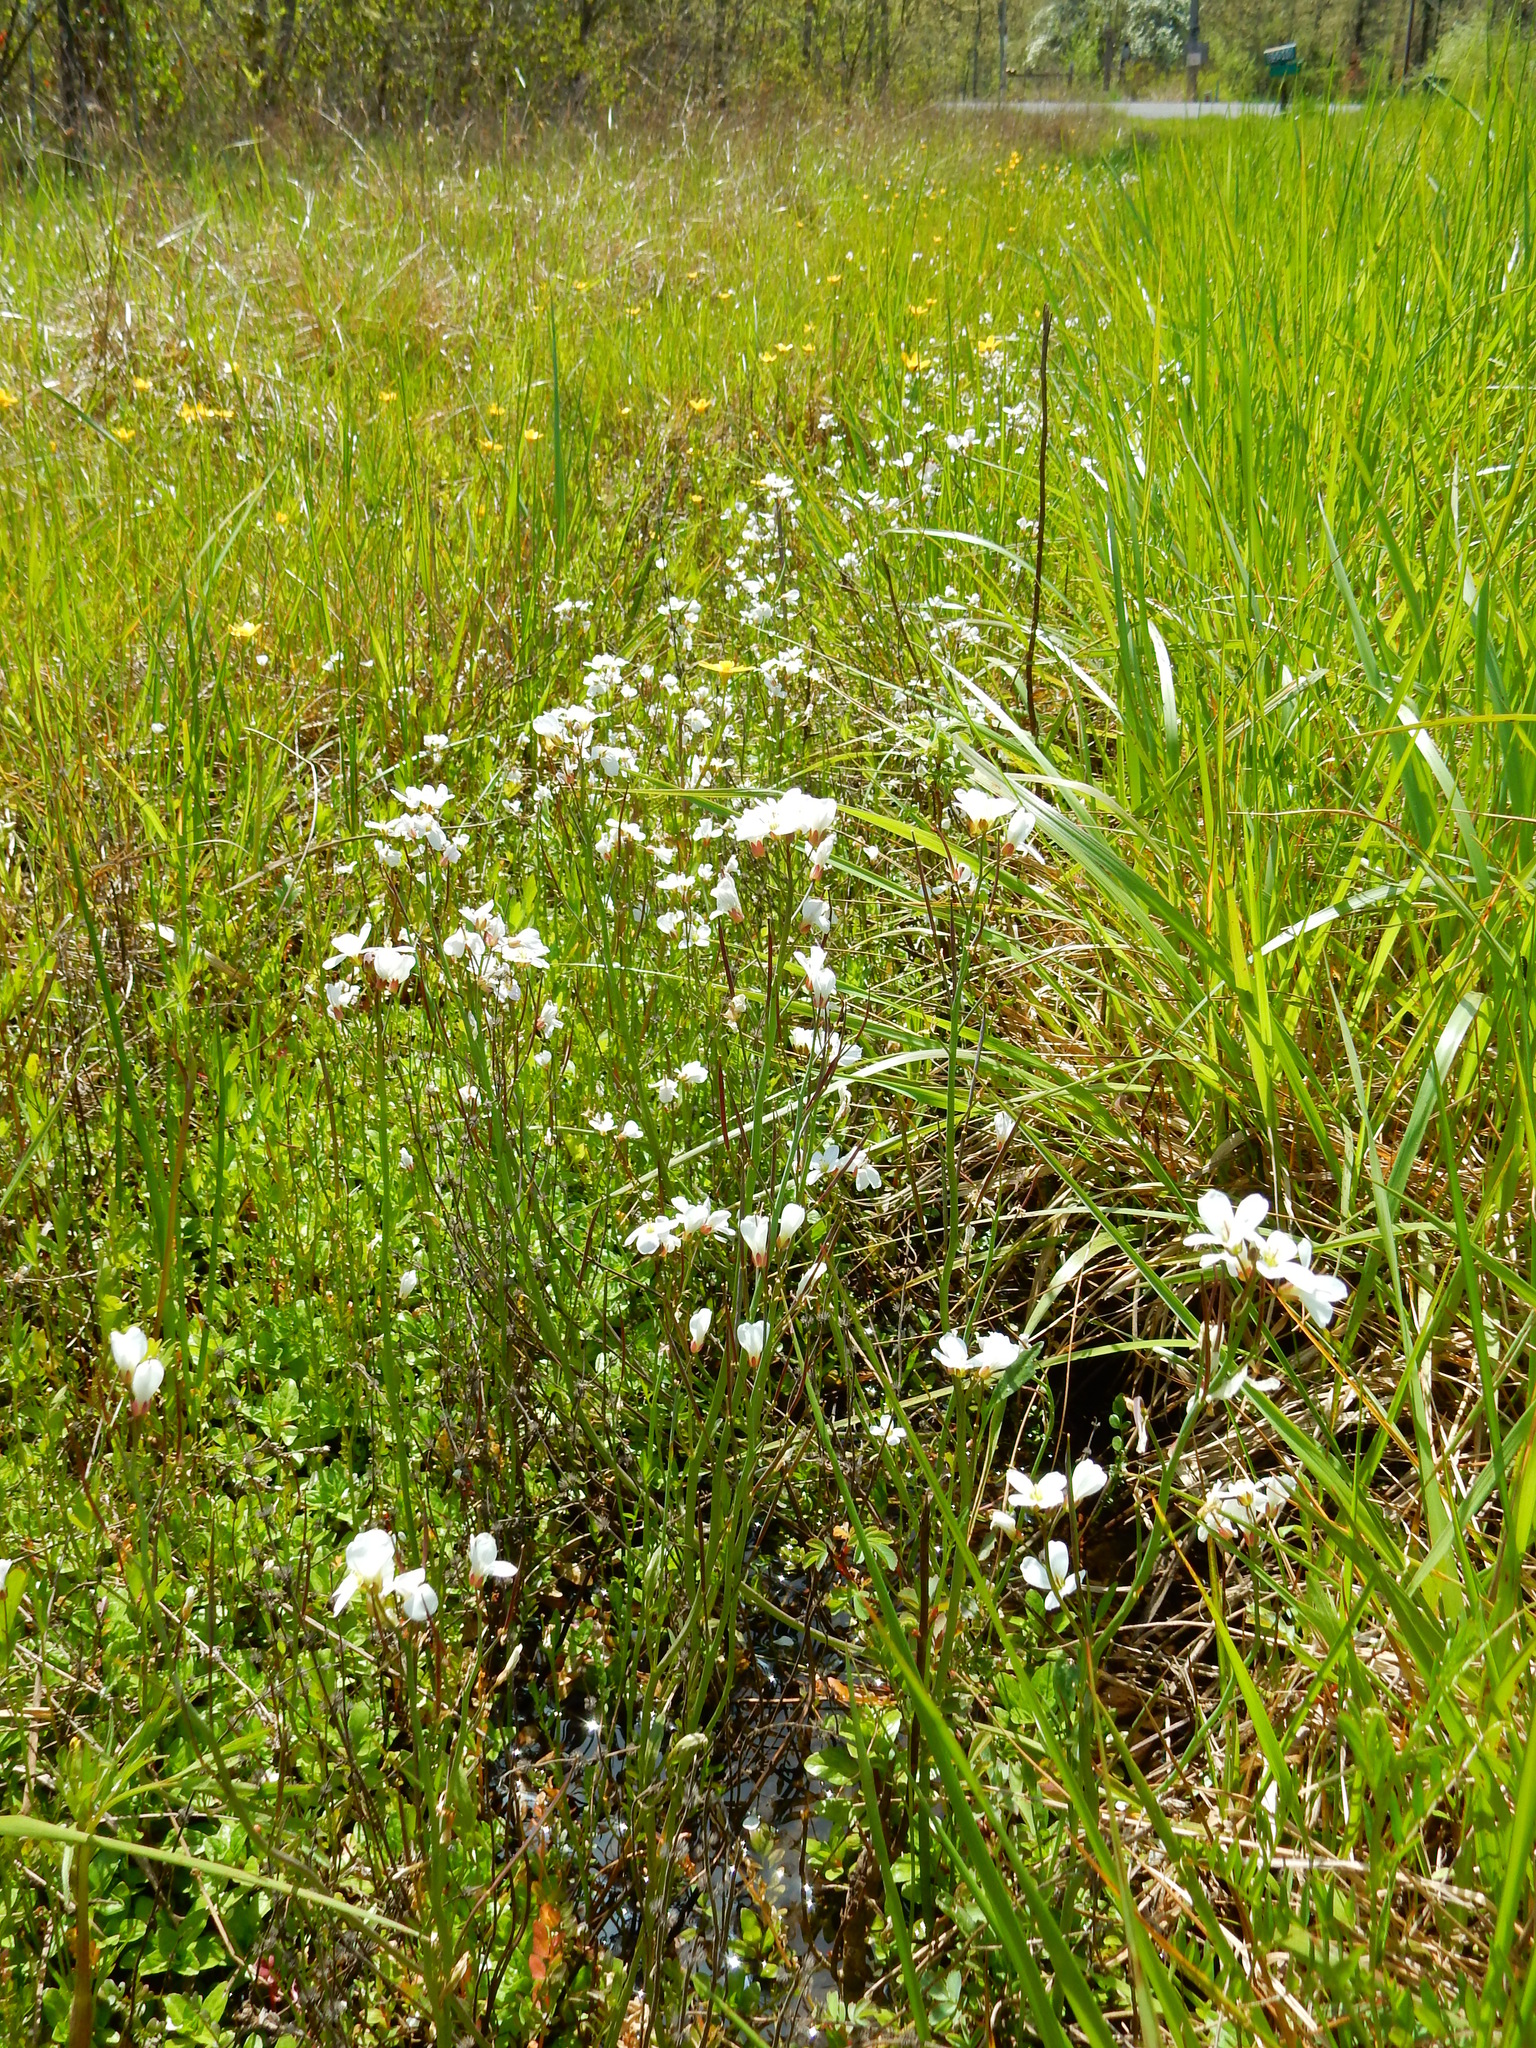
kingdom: Plantae
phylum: Tracheophyta
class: Magnoliopsida
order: Brassicales
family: Brassicaceae
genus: Cardamine
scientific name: Cardamine penduliflora
